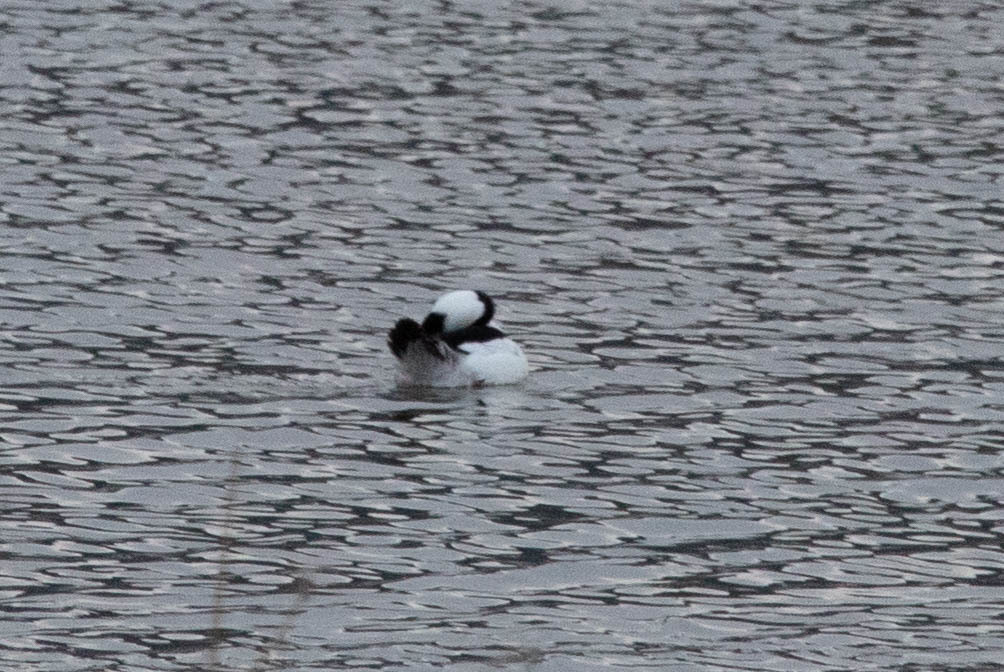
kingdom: Animalia
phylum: Chordata
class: Aves
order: Anseriformes
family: Anatidae
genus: Bucephala
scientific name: Bucephala albeola
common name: Bufflehead
